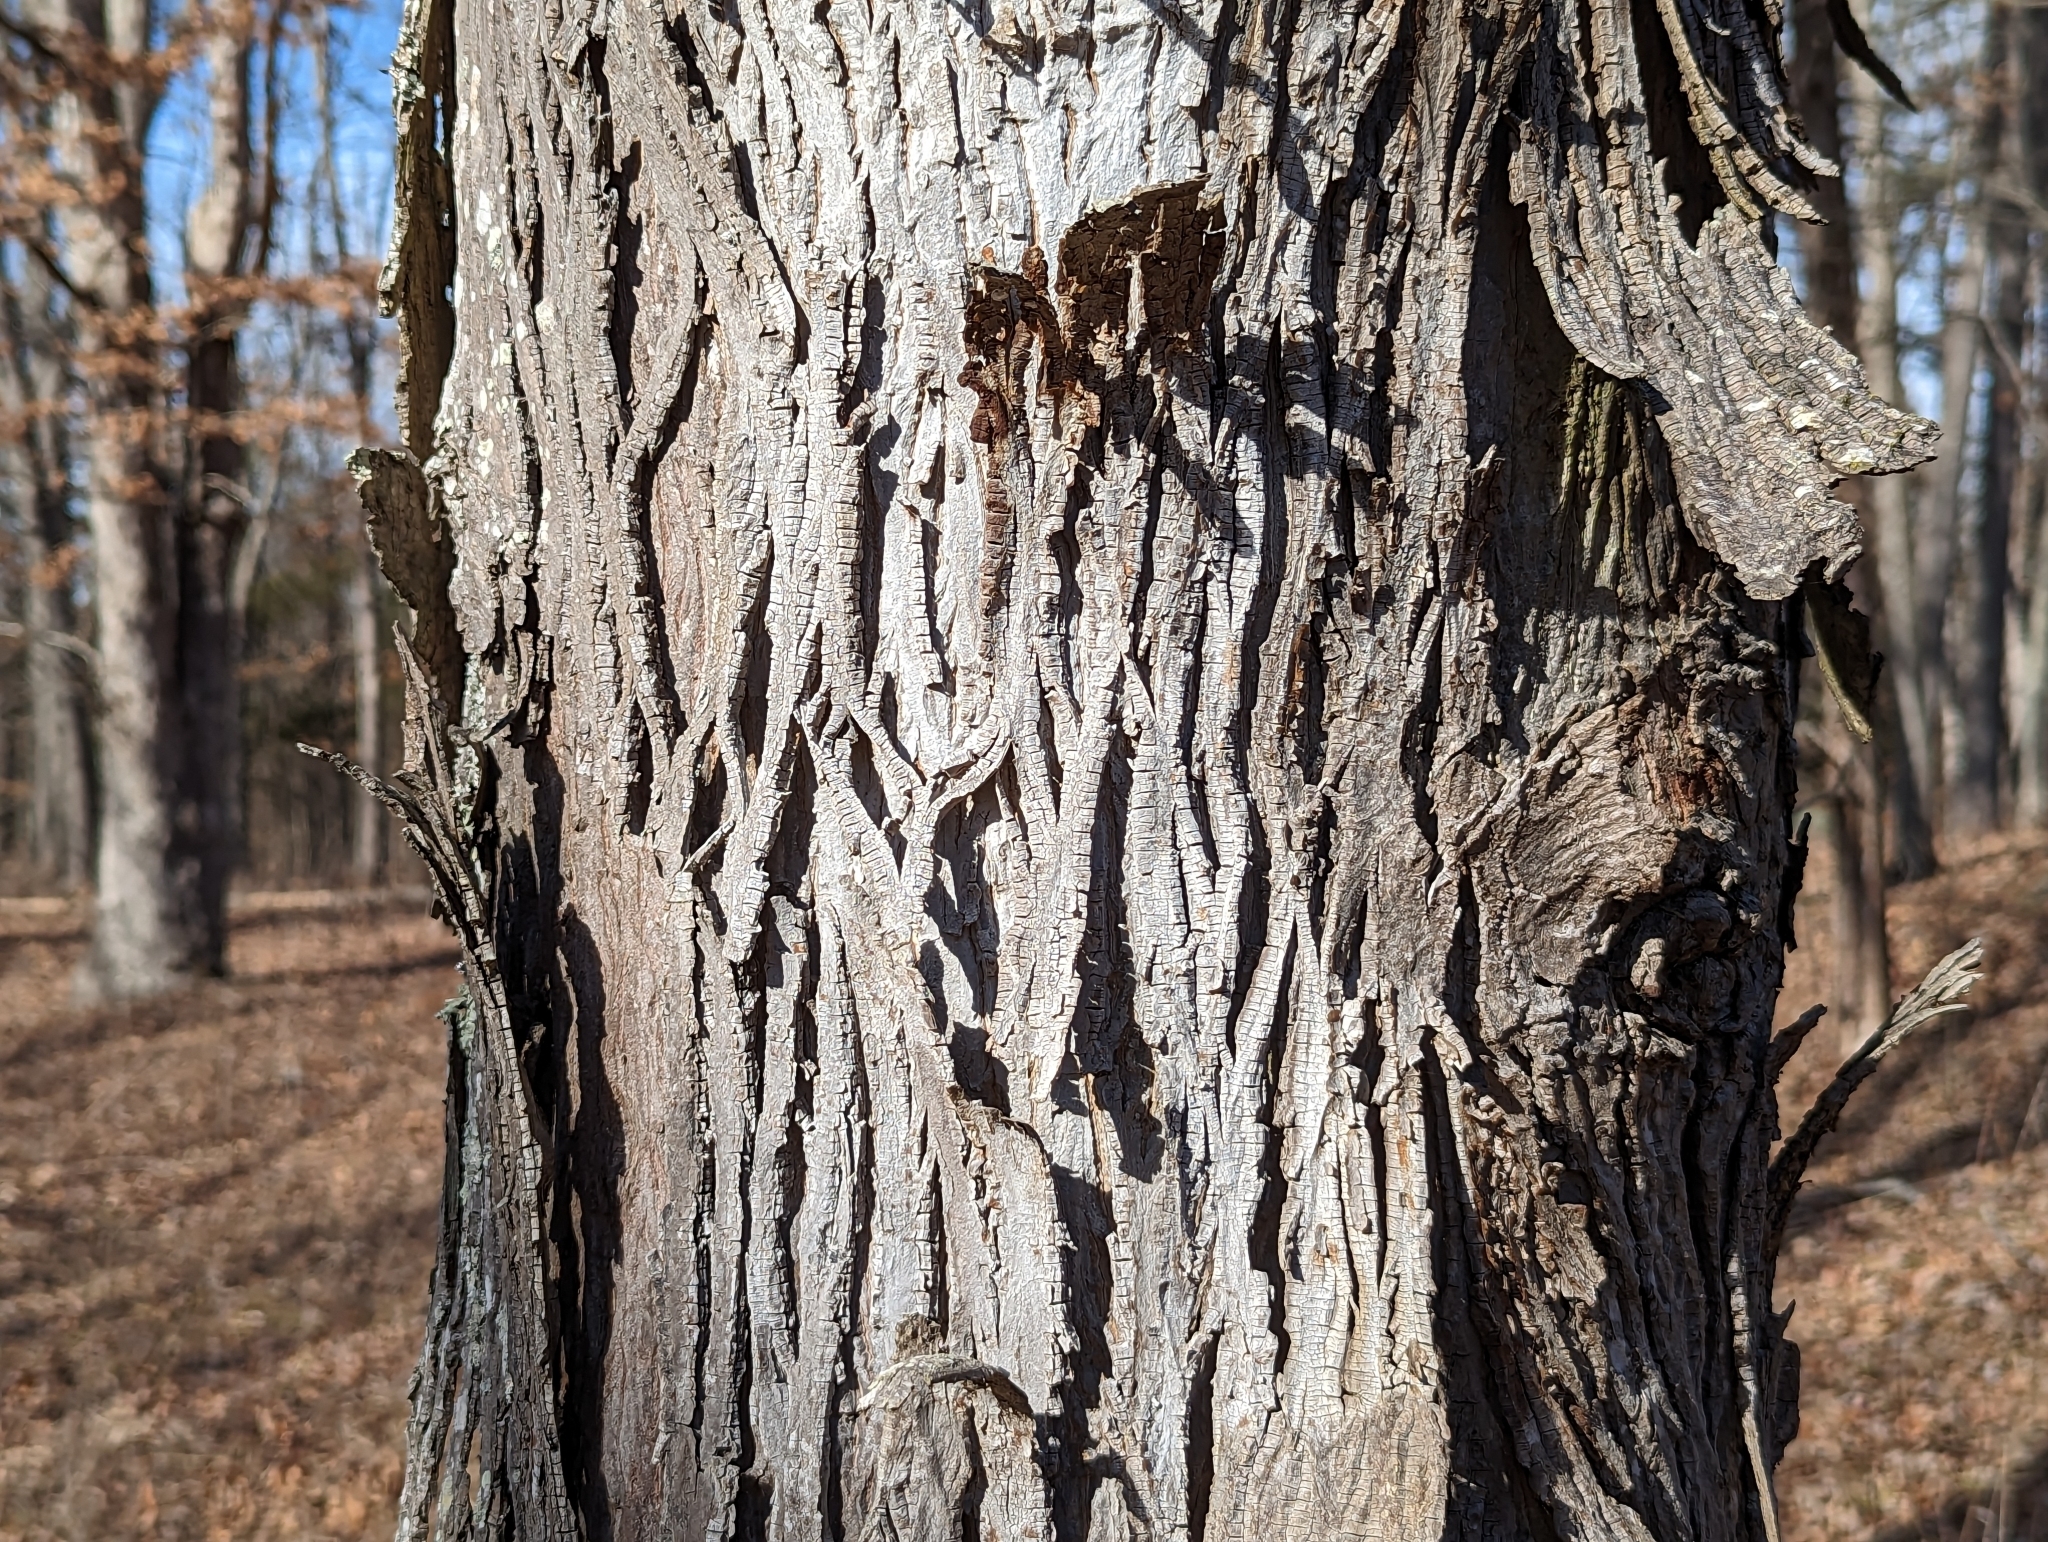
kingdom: Plantae
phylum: Tracheophyta
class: Magnoliopsida
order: Fagales
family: Juglandaceae
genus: Carya
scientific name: Carya ovata
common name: Shagbark hickory
